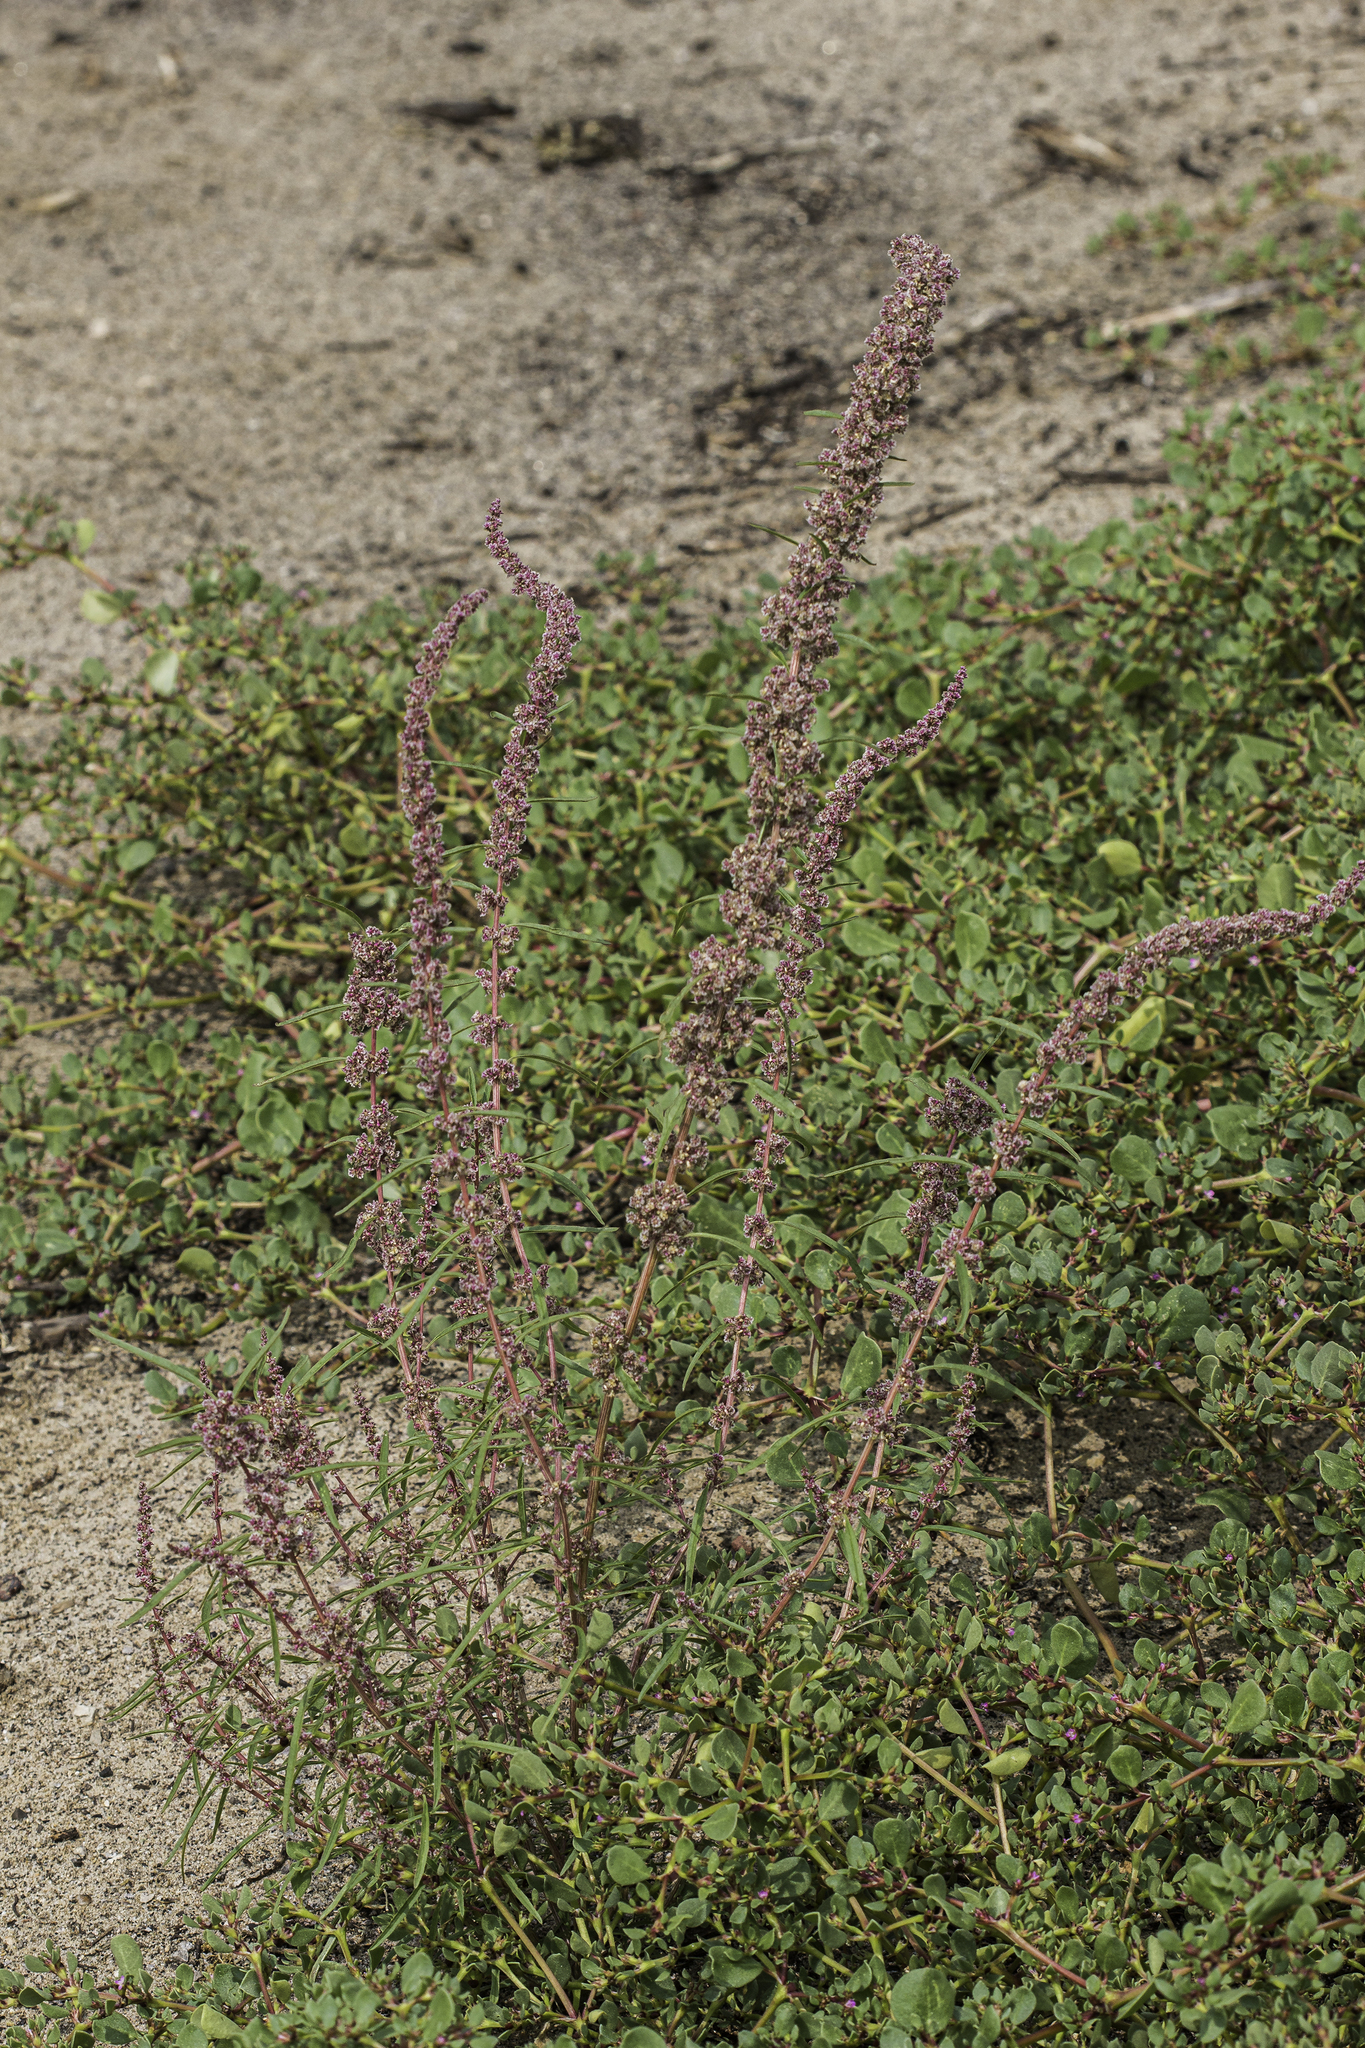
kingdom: Plantae
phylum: Tracheophyta
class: Magnoliopsida
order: Caryophyllales
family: Amaranthaceae
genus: Amaranthus
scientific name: Amaranthus fimbriatus
